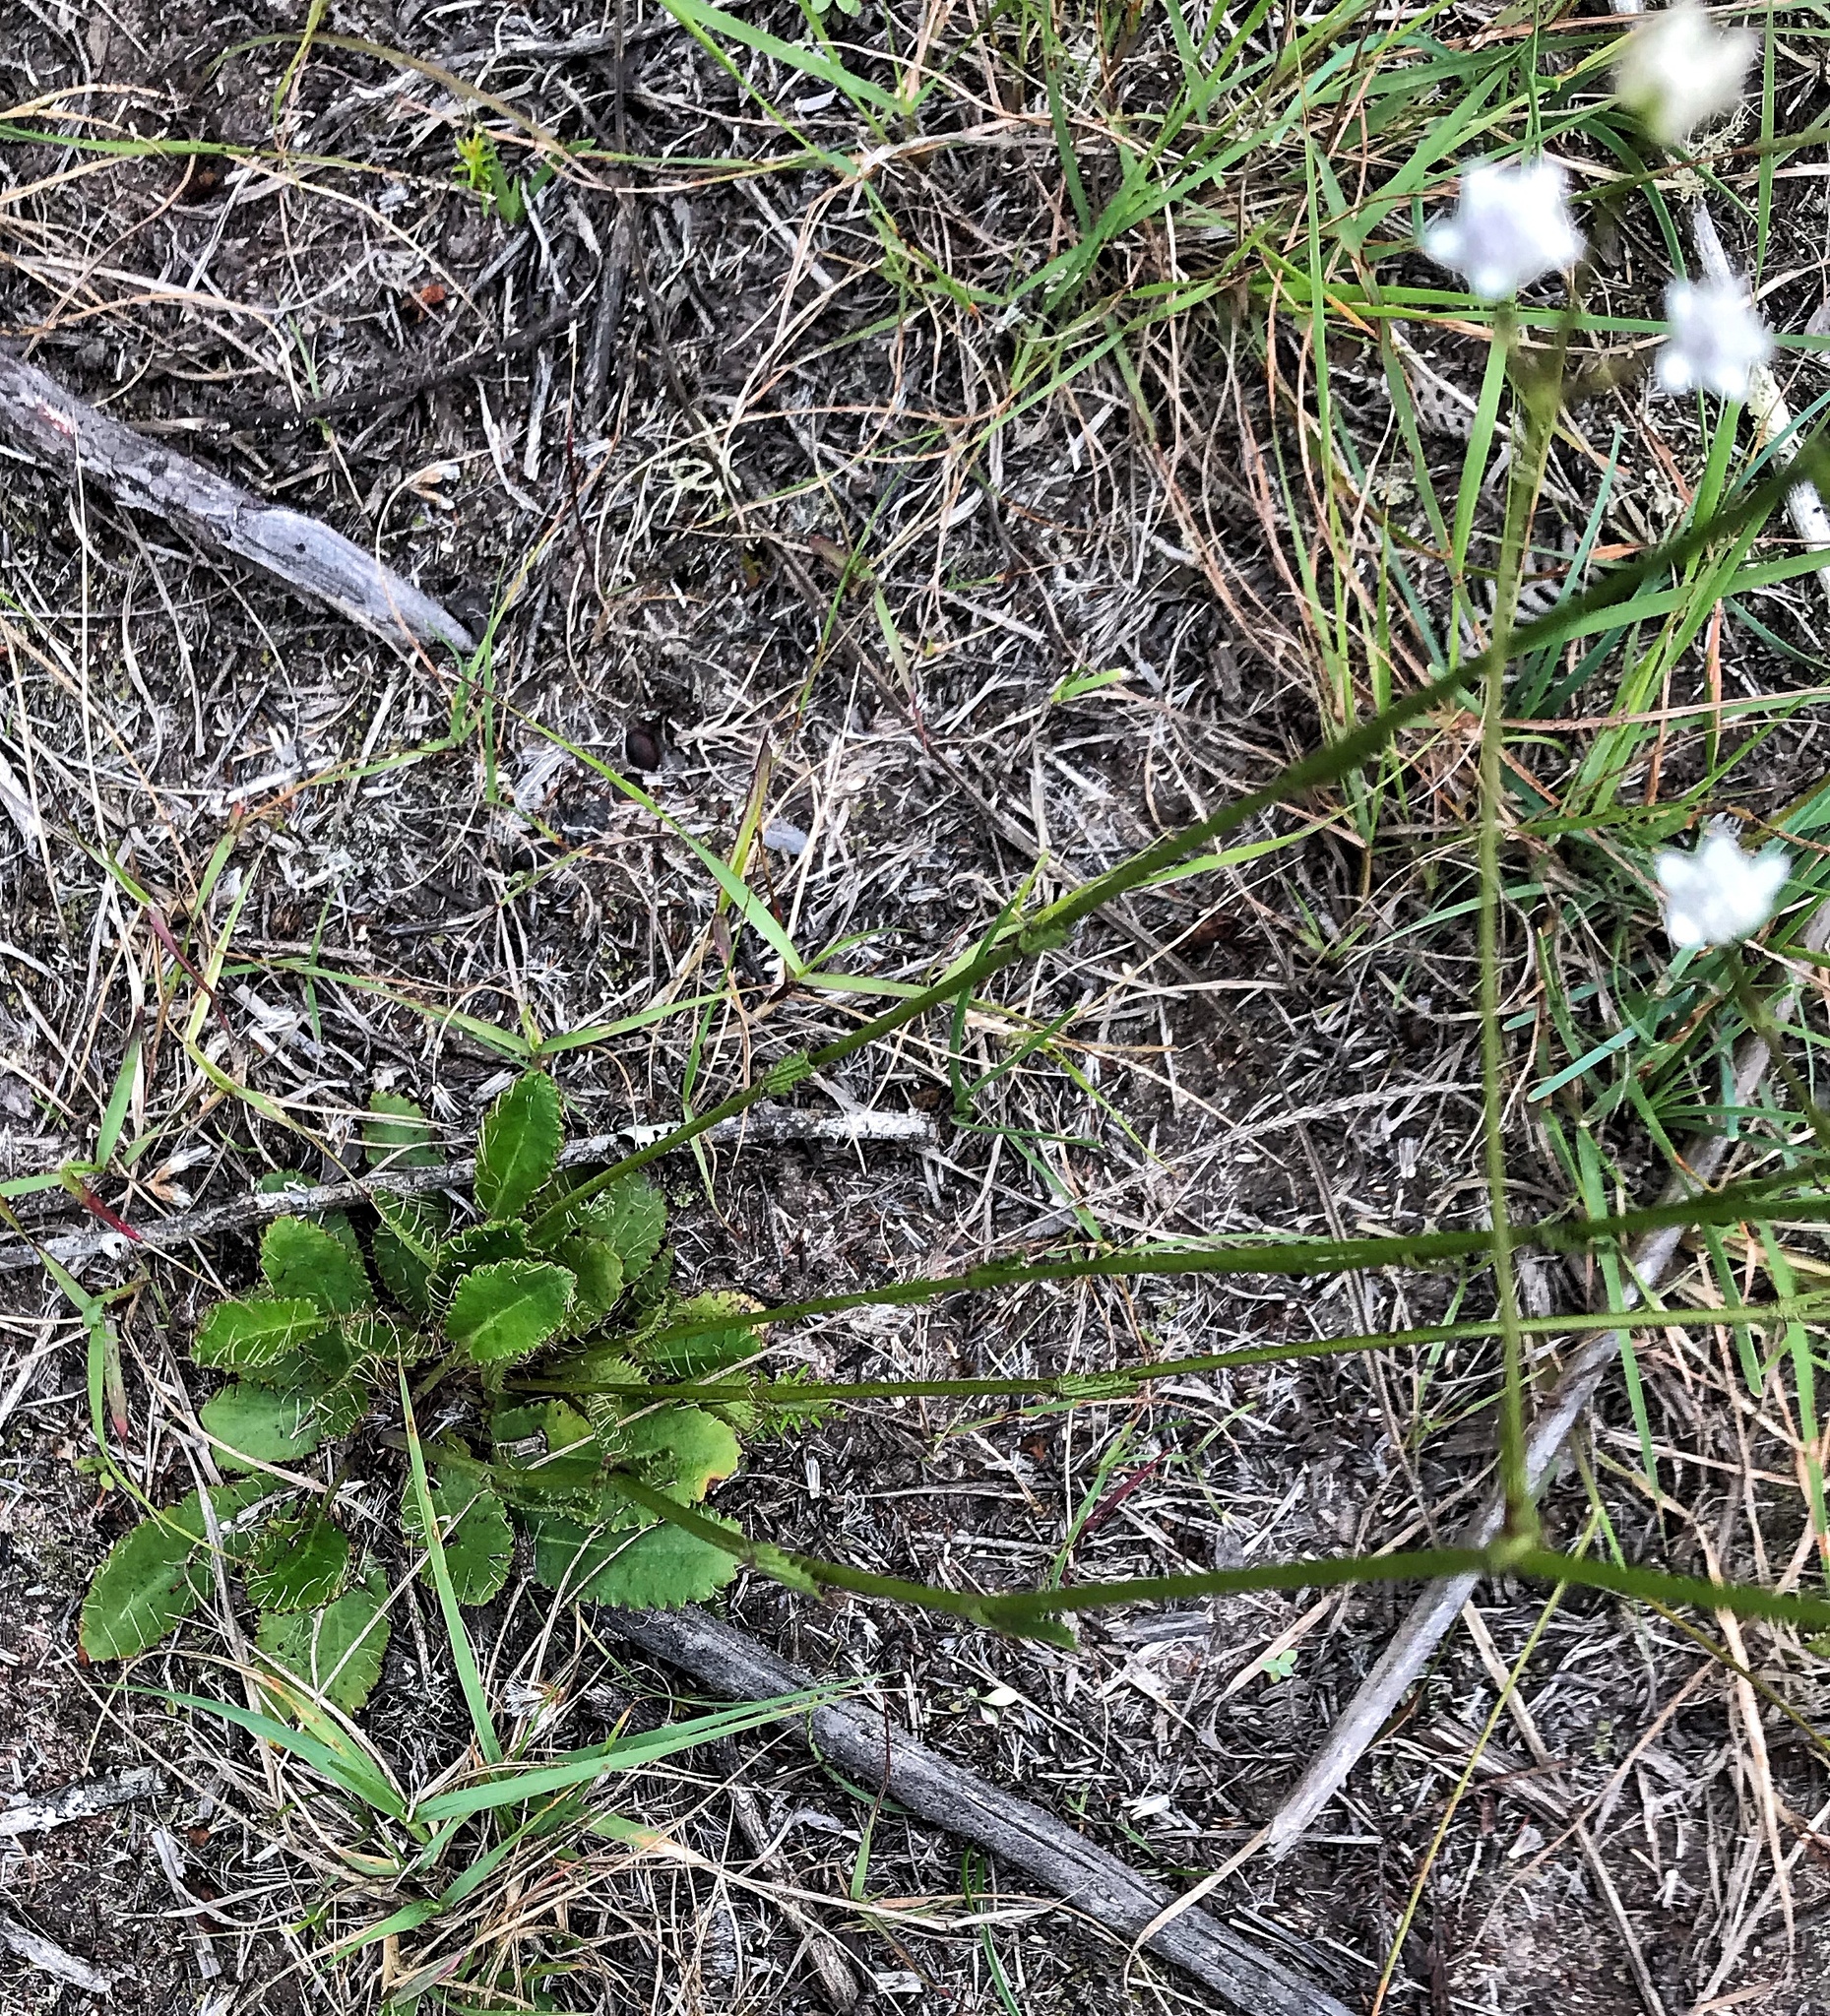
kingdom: Plantae
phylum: Tracheophyta
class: Magnoliopsida
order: Apiales
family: Apiaceae
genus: Alepidea
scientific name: Alepidea capensis
